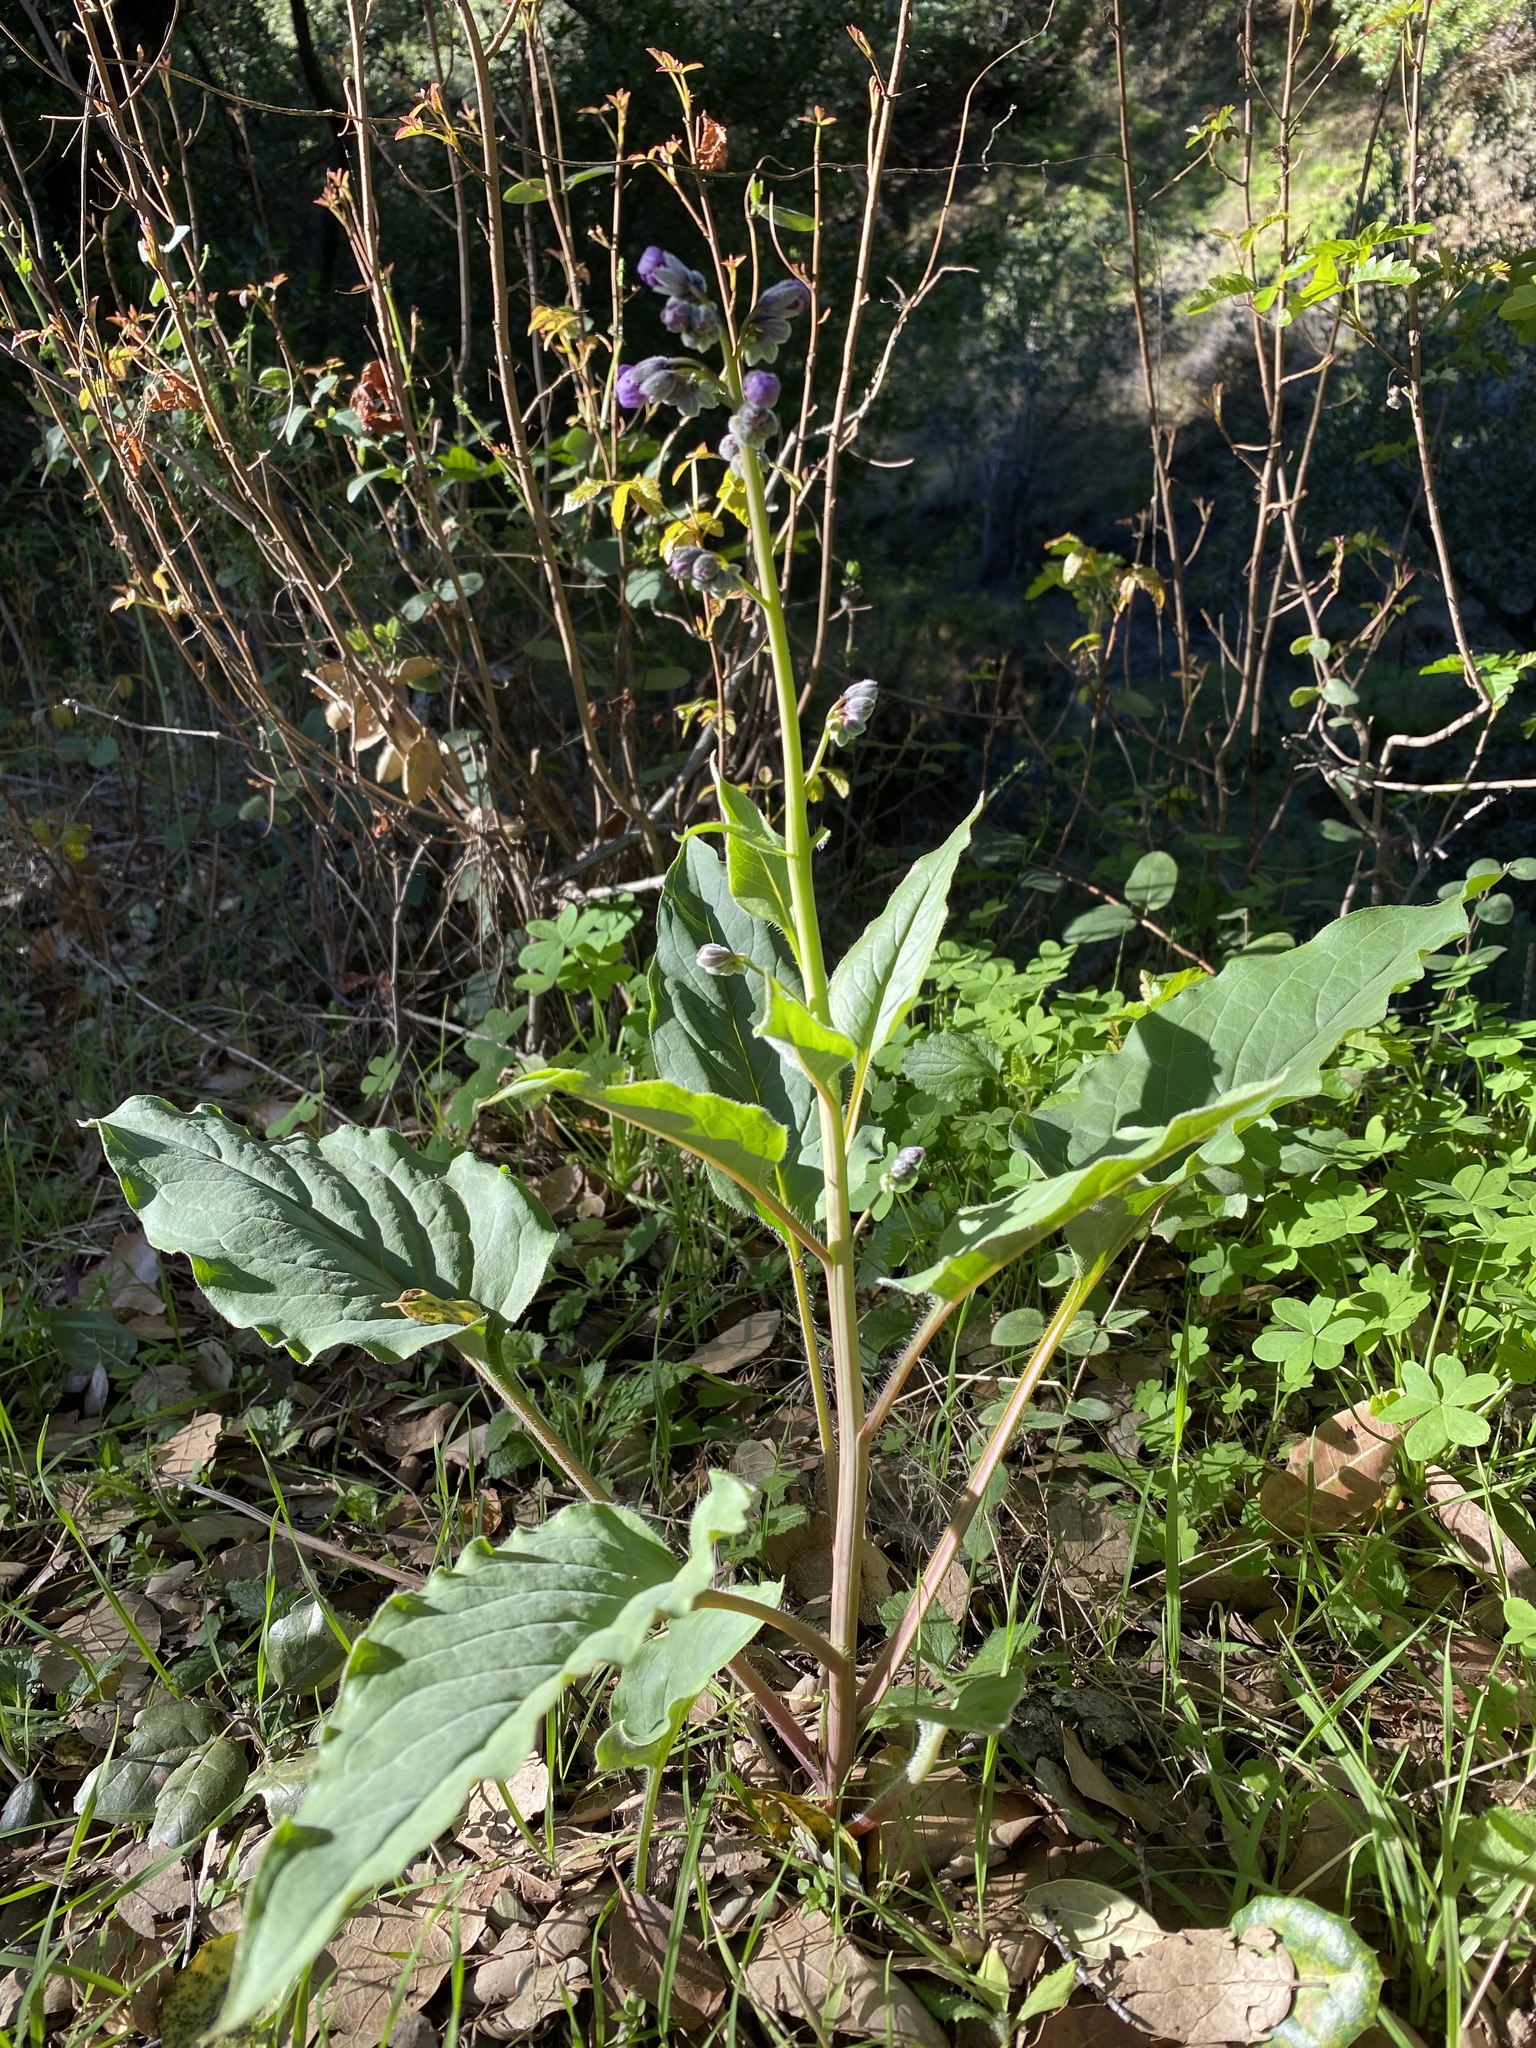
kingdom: Plantae
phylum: Tracheophyta
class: Magnoliopsida
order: Boraginales
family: Boraginaceae
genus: Adelinia
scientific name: Adelinia grande
